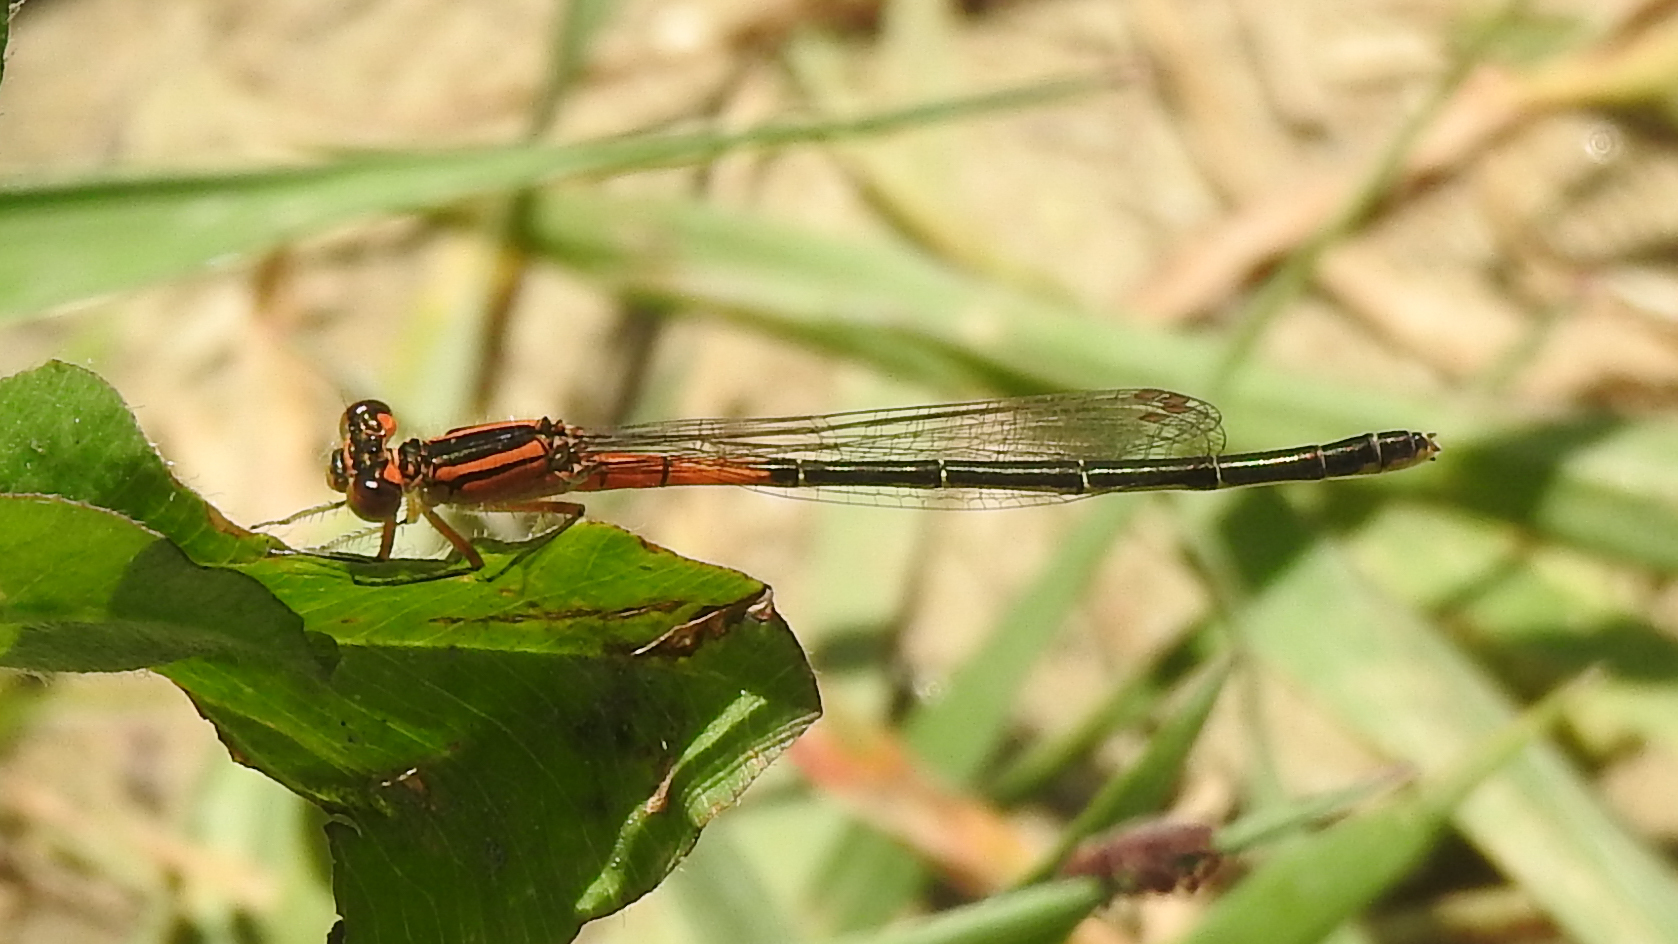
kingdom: Animalia
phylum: Arthropoda
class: Insecta
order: Odonata
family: Coenagrionidae
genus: Ischnura
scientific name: Ischnura verticalis
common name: Eastern forktail
